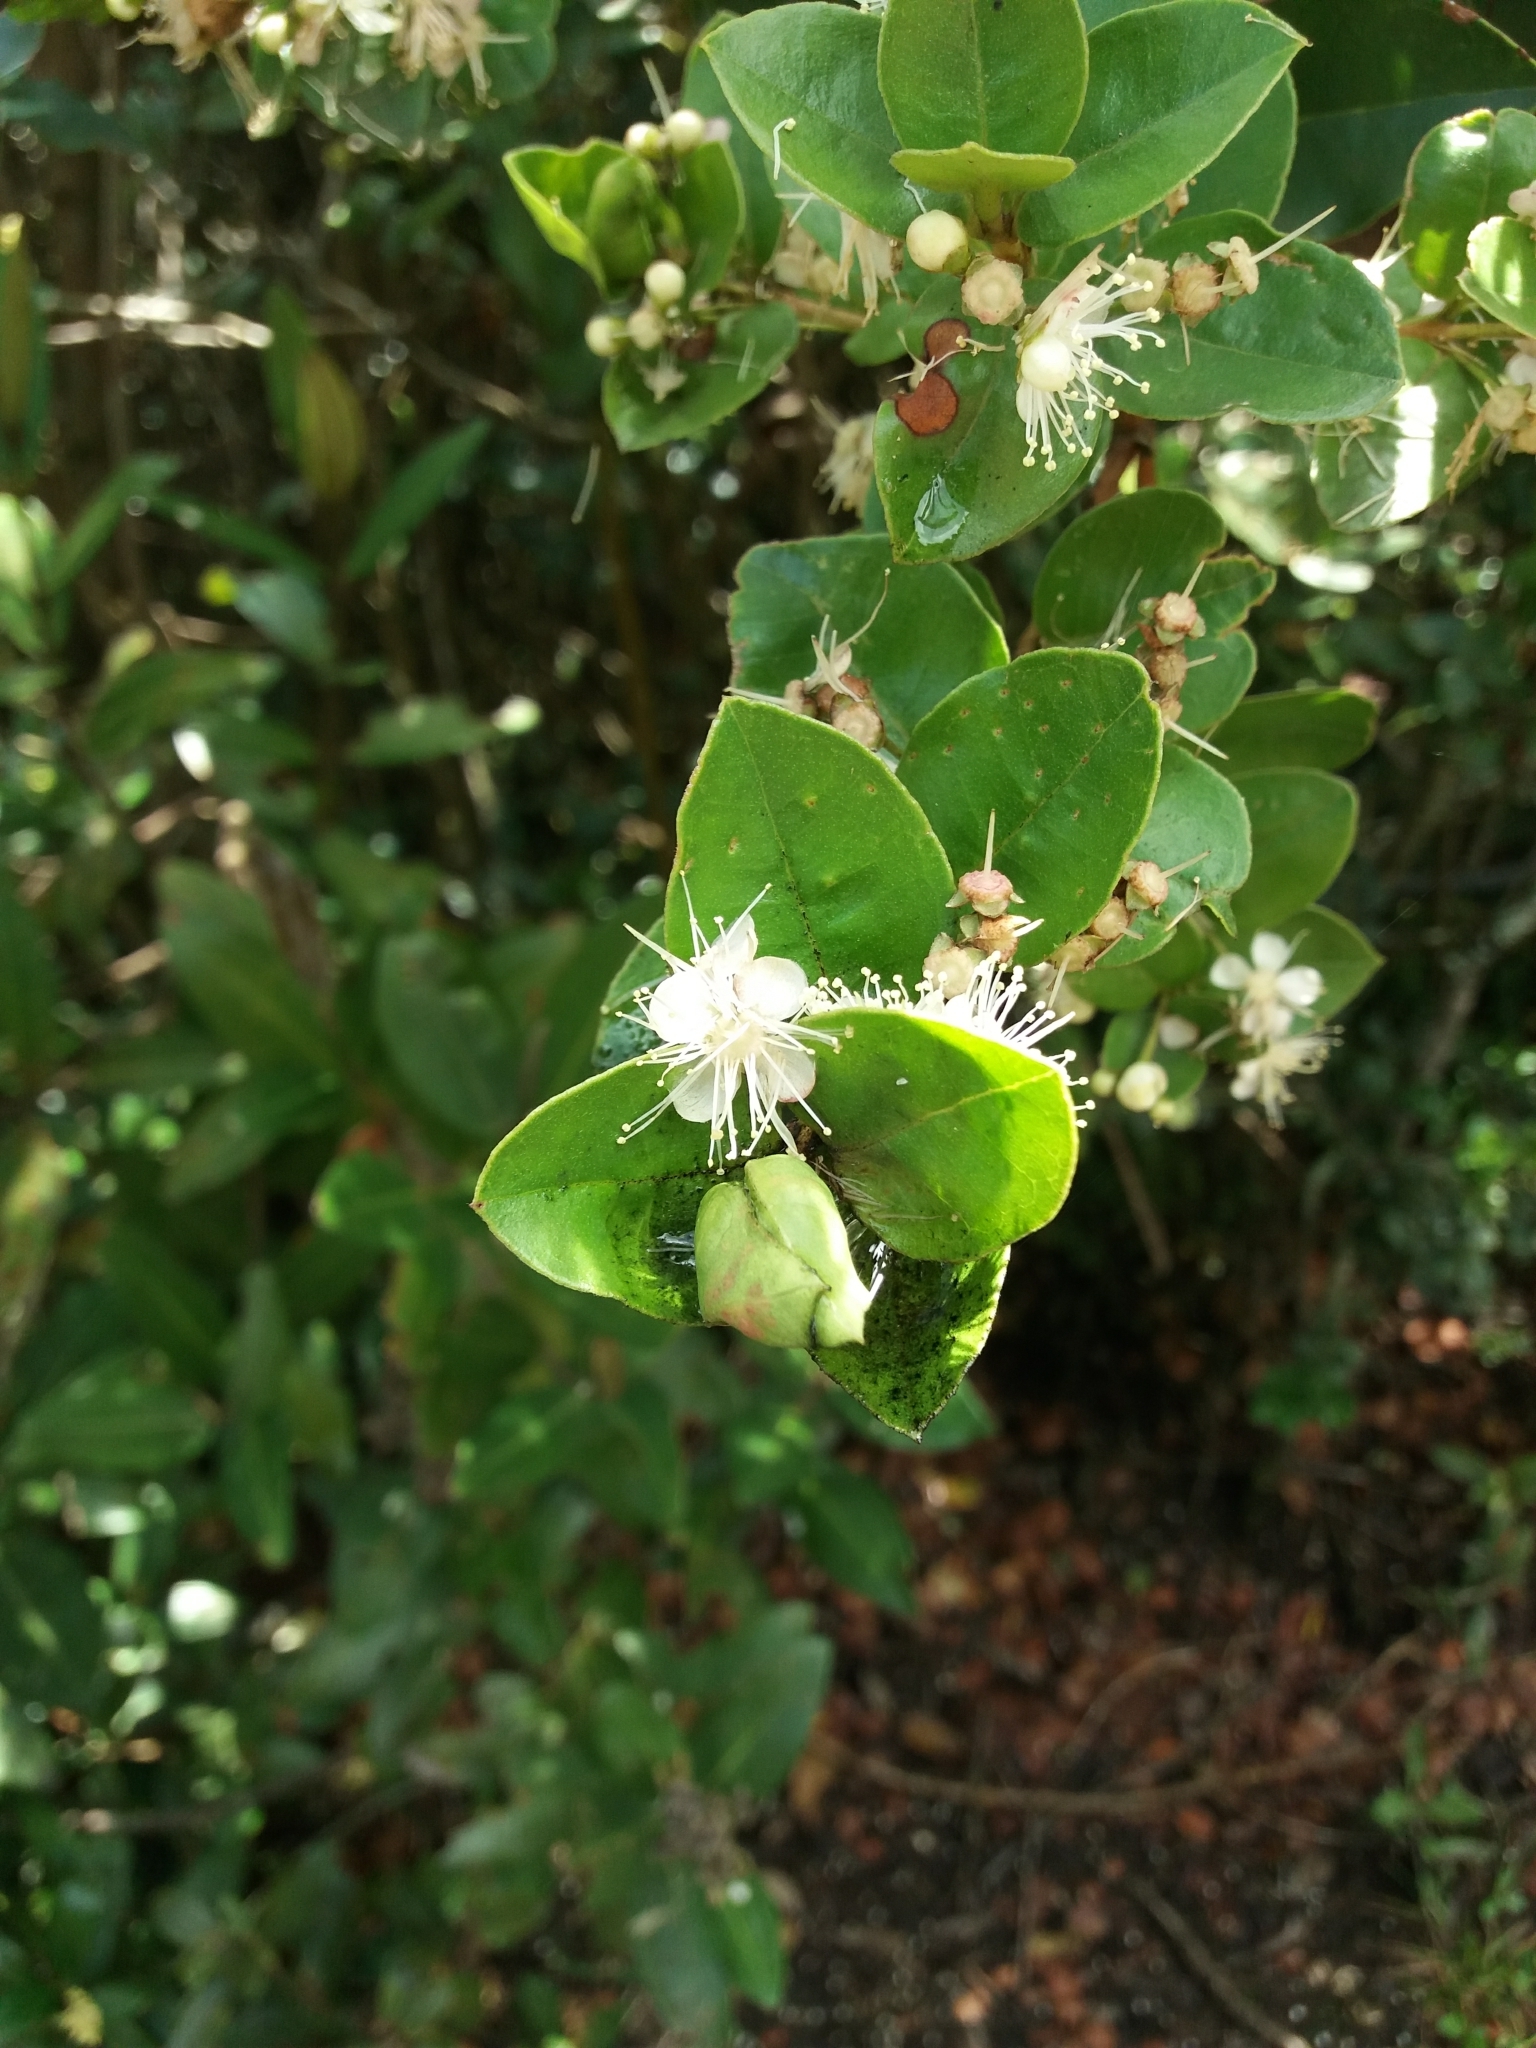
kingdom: Plantae
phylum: Tracheophyta
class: Magnoliopsida
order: Myrtales
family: Myrtaceae
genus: Myrcianthes
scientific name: Myrcianthes leucoxyla
